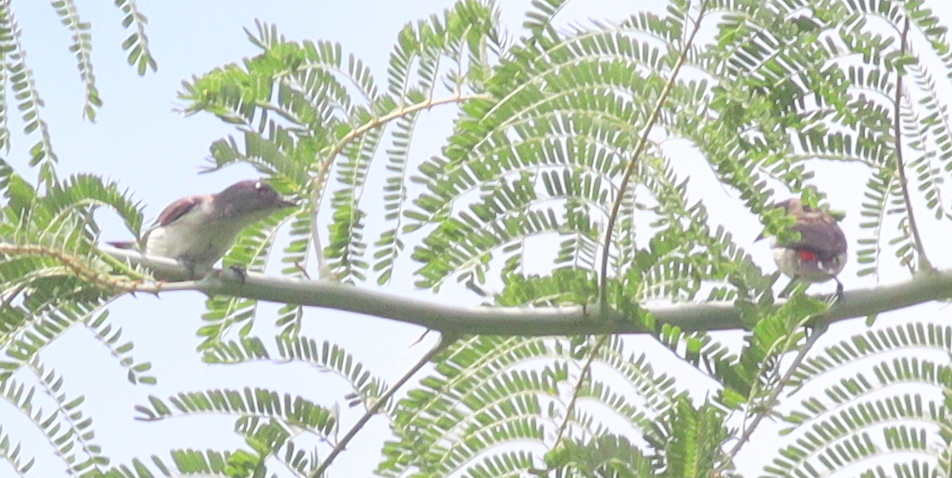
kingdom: Animalia
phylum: Chordata
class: Aves
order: Passeriformes
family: Dicaeidae
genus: Dicaeum
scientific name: Dicaeum maugei
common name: Blue-cheeked flowerpecker
